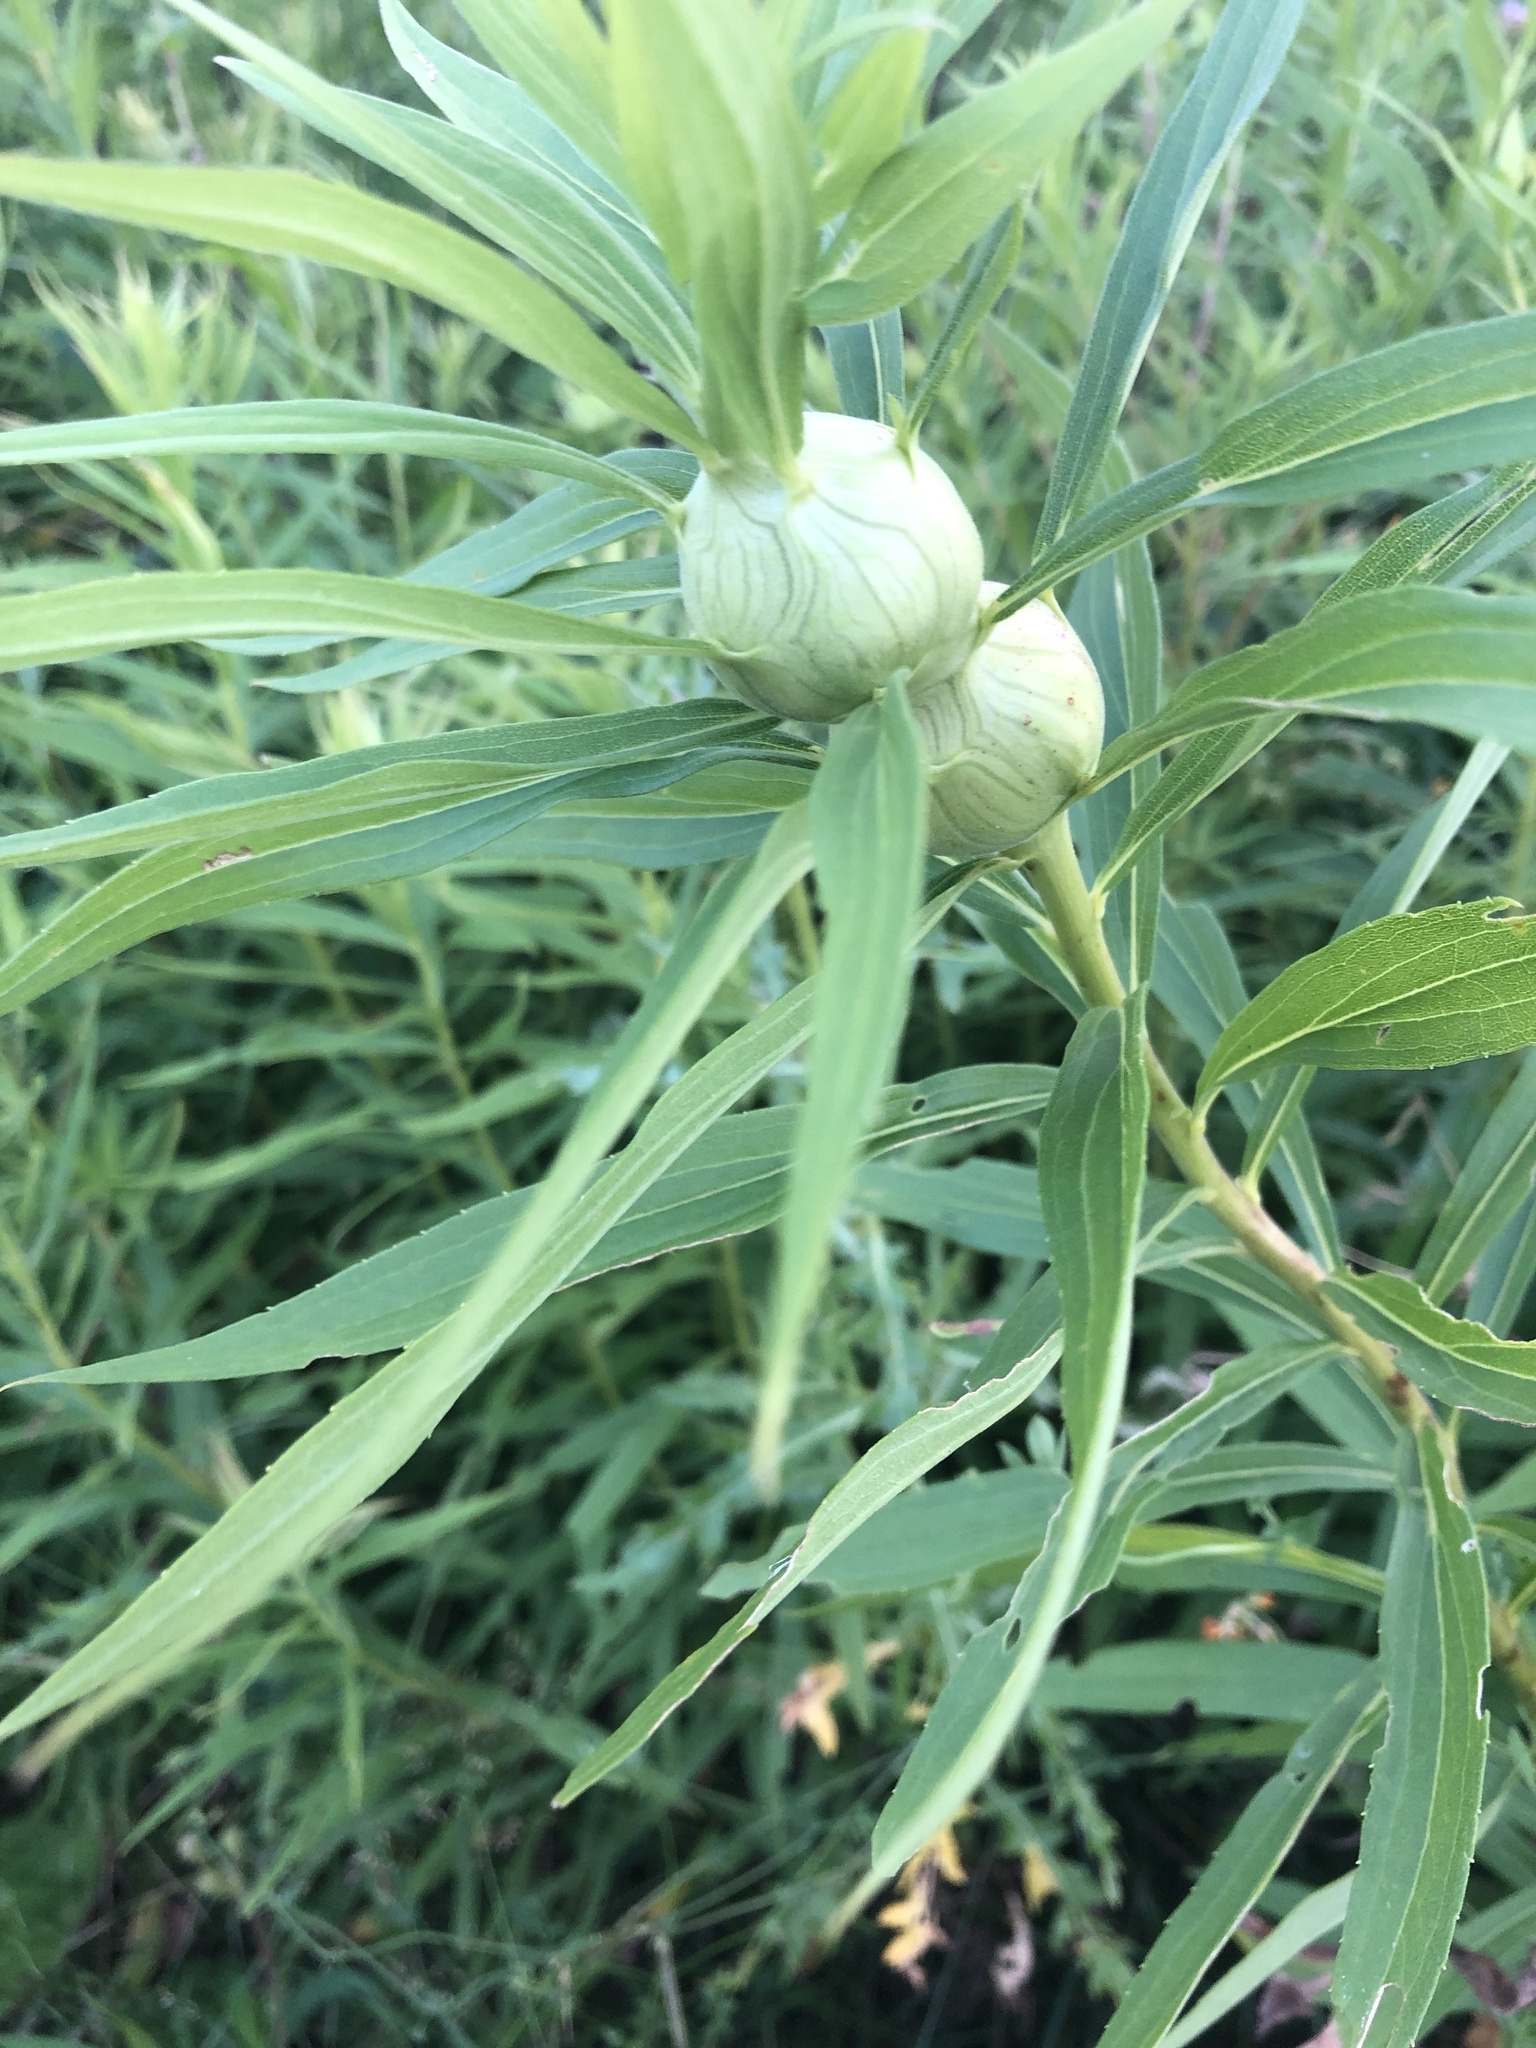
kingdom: Animalia
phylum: Arthropoda
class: Insecta
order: Diptera
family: Tephritidae
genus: Eurosta
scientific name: Eurosta solidaginis
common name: Goldenrod gall fly
